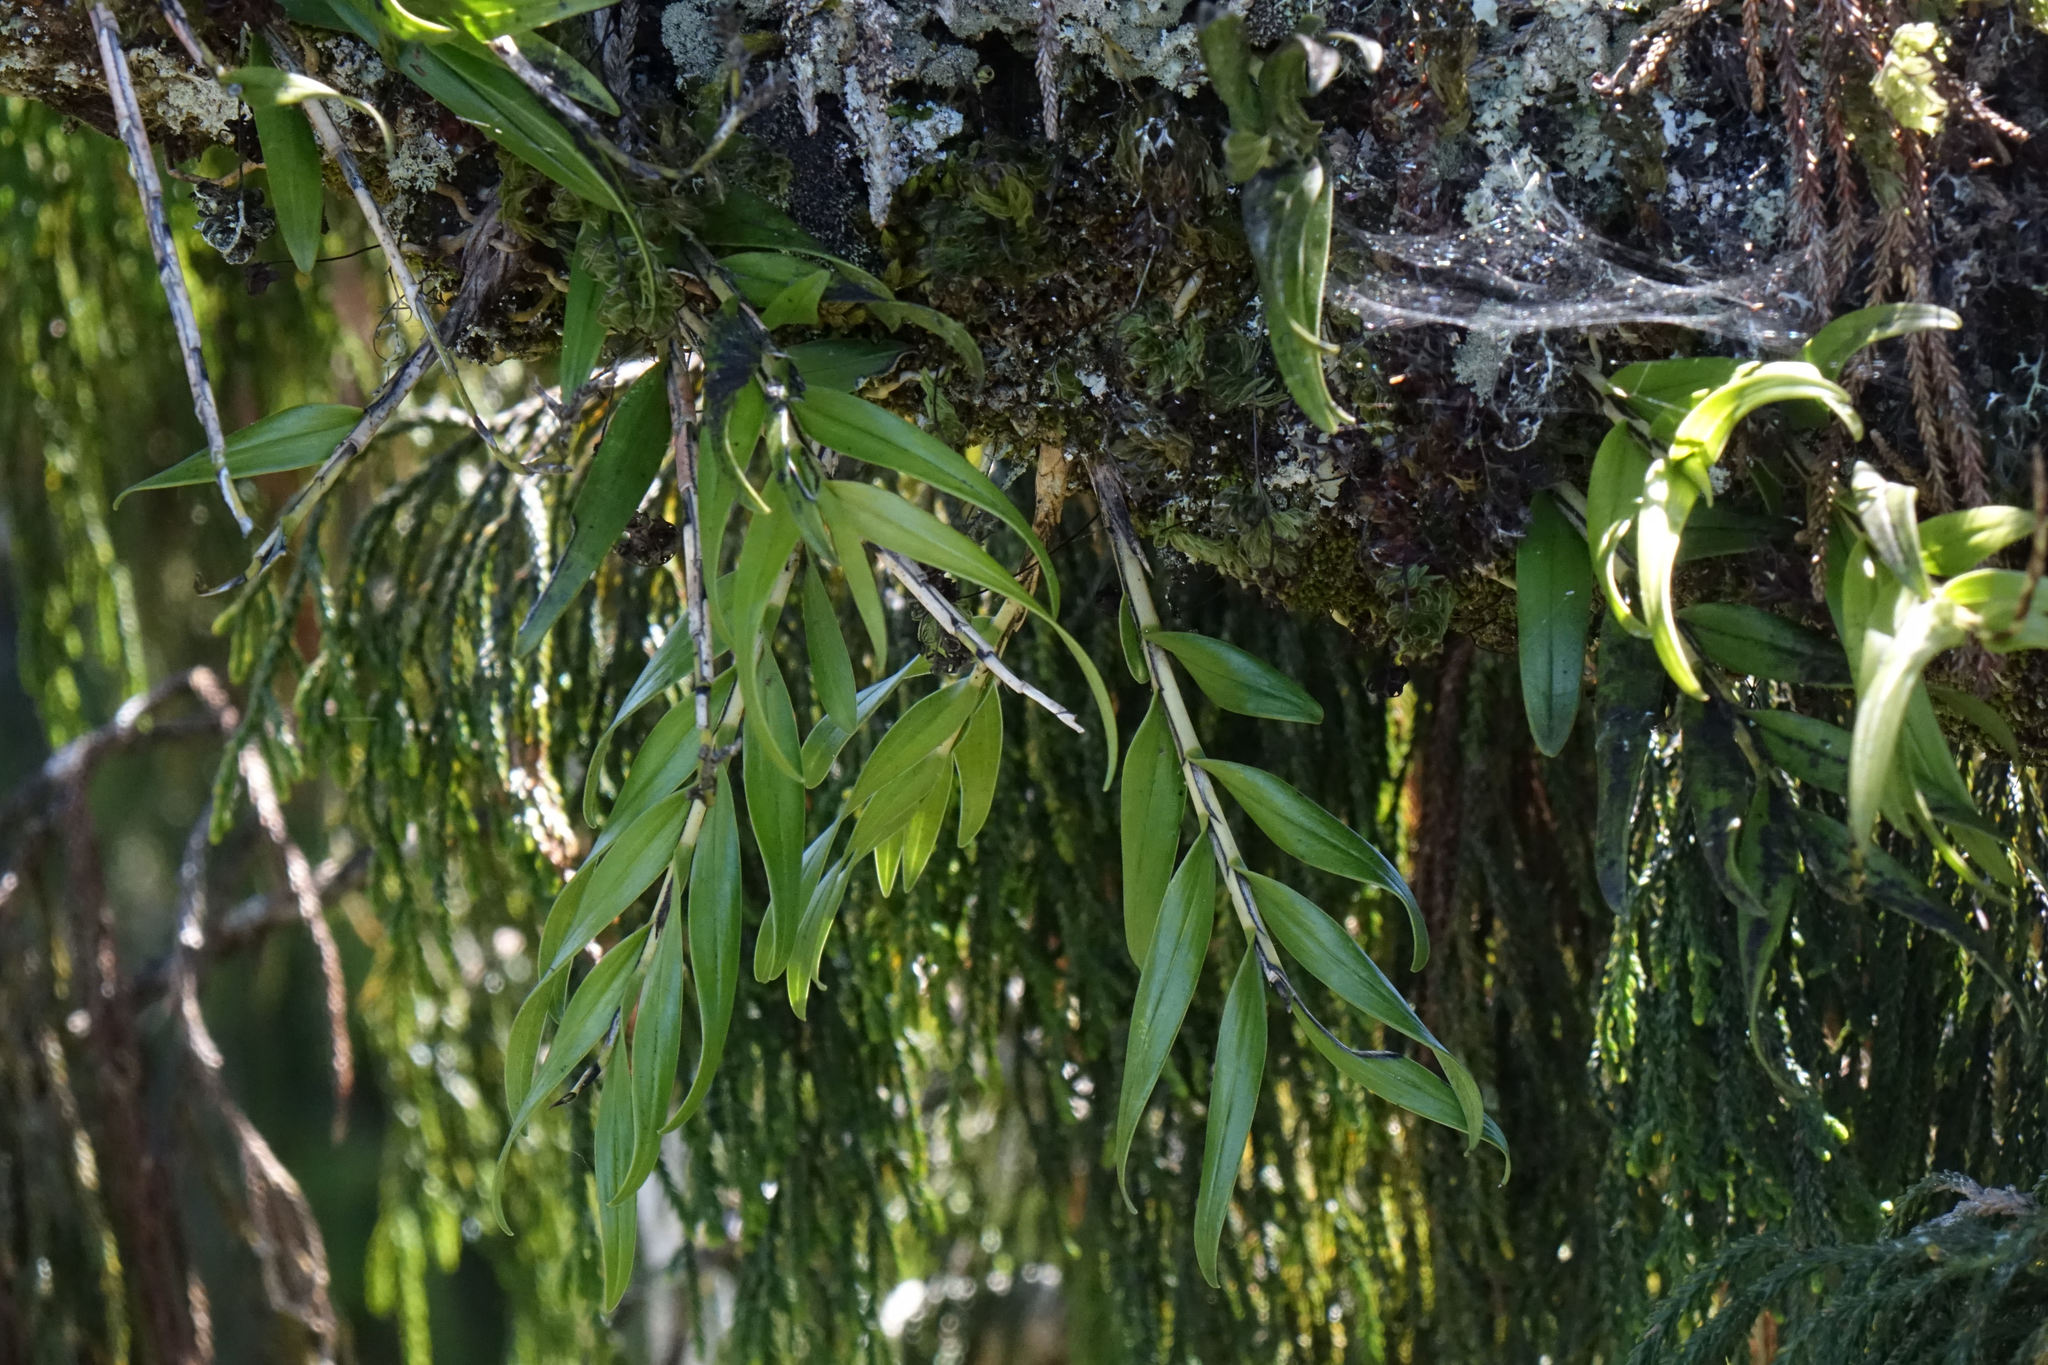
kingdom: Plantae
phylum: Tracheophyta
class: Liliopsida
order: Asparagales
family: Orchidaceae
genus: Earina
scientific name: Earina autumnalis
